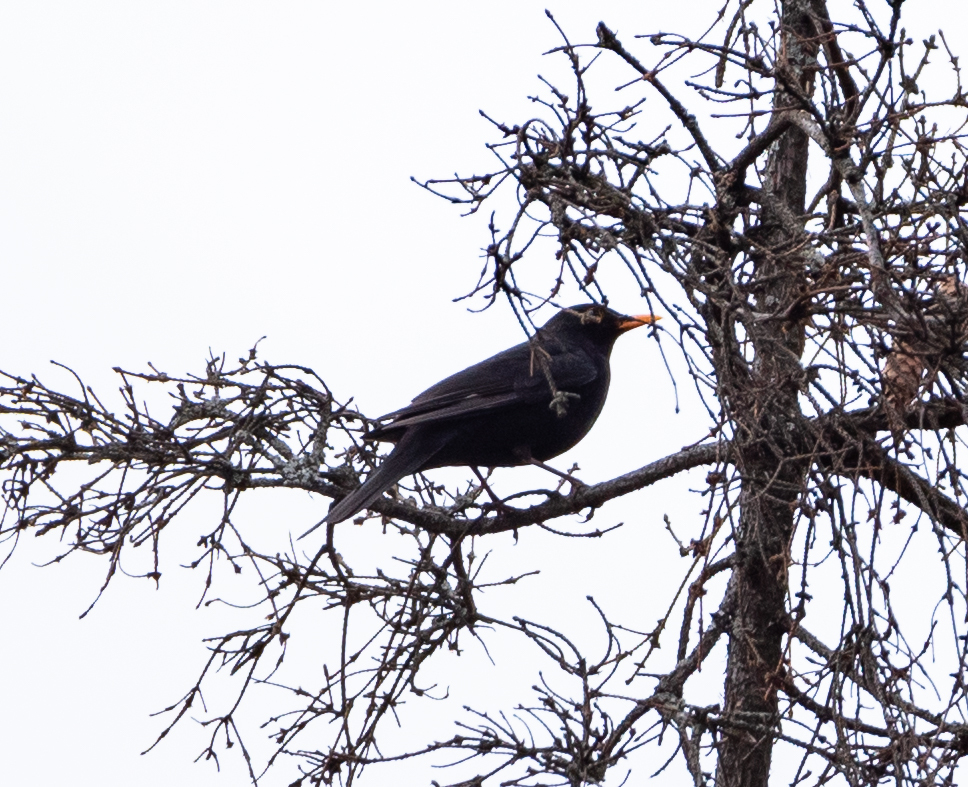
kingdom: Animalia
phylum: Chordata
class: Aves
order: Passeriformes
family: Turdidae
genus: Turdus
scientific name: Turdus merula
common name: Common blackbird
